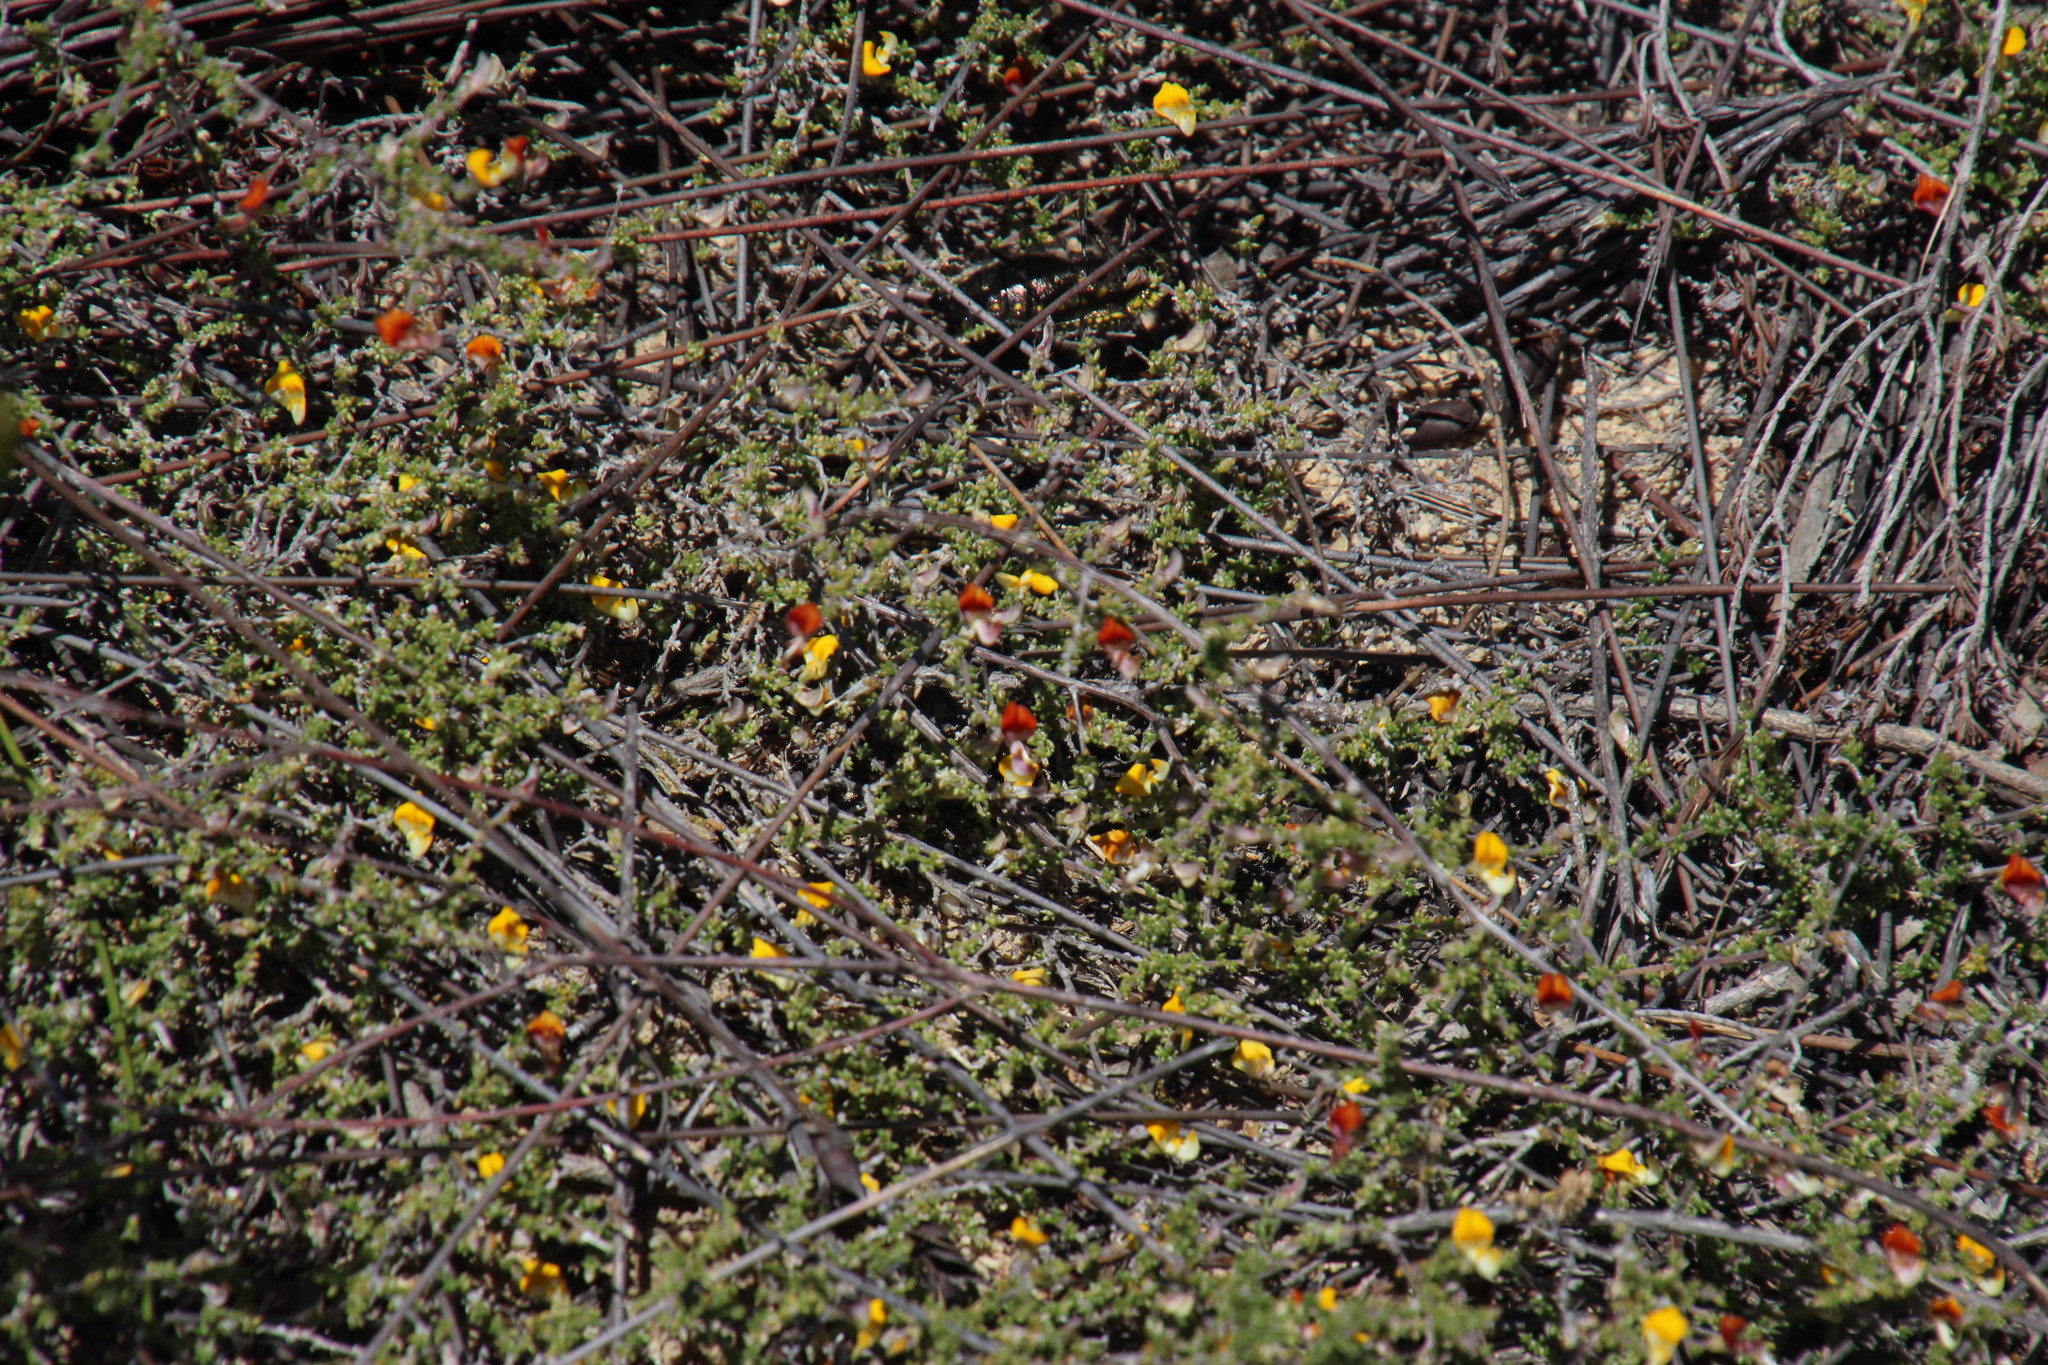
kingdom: Plantae
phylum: Tracheophyta
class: Magnoliopsida
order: Fabales
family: Fabaceae
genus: Aspalathus
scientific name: Aspalathus leptocoma
